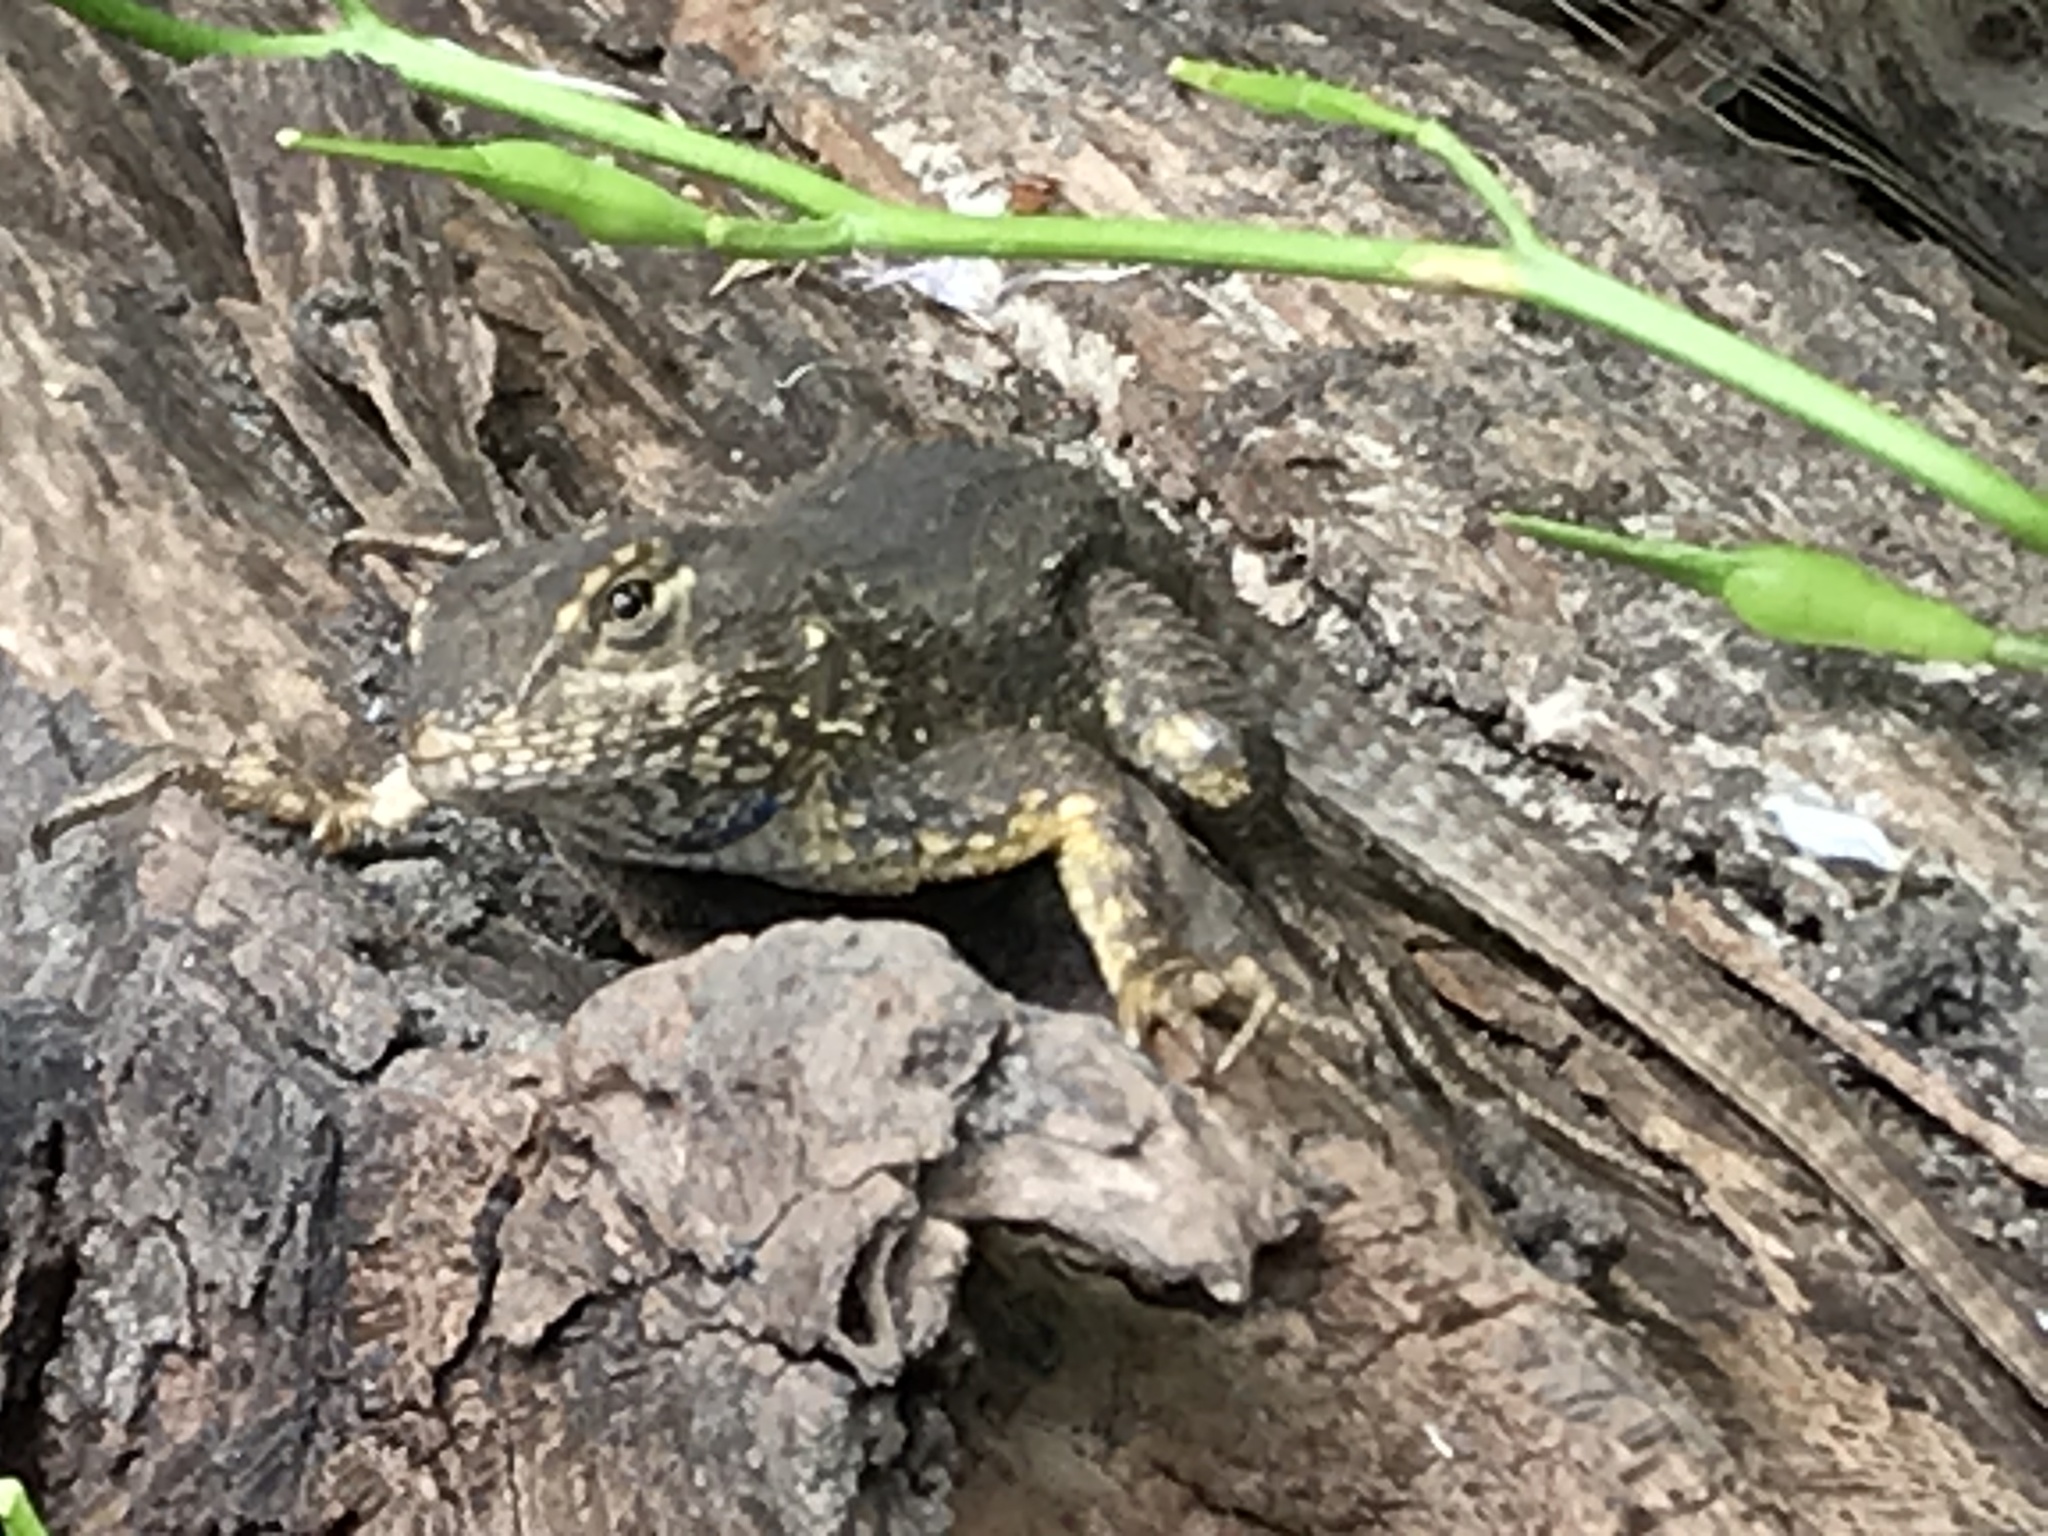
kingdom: Animalia
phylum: Chordata
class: Squamata
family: Phrynosomatidae
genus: Sceloporus
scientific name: Sceloporus occidentalis
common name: Western fence lizard
